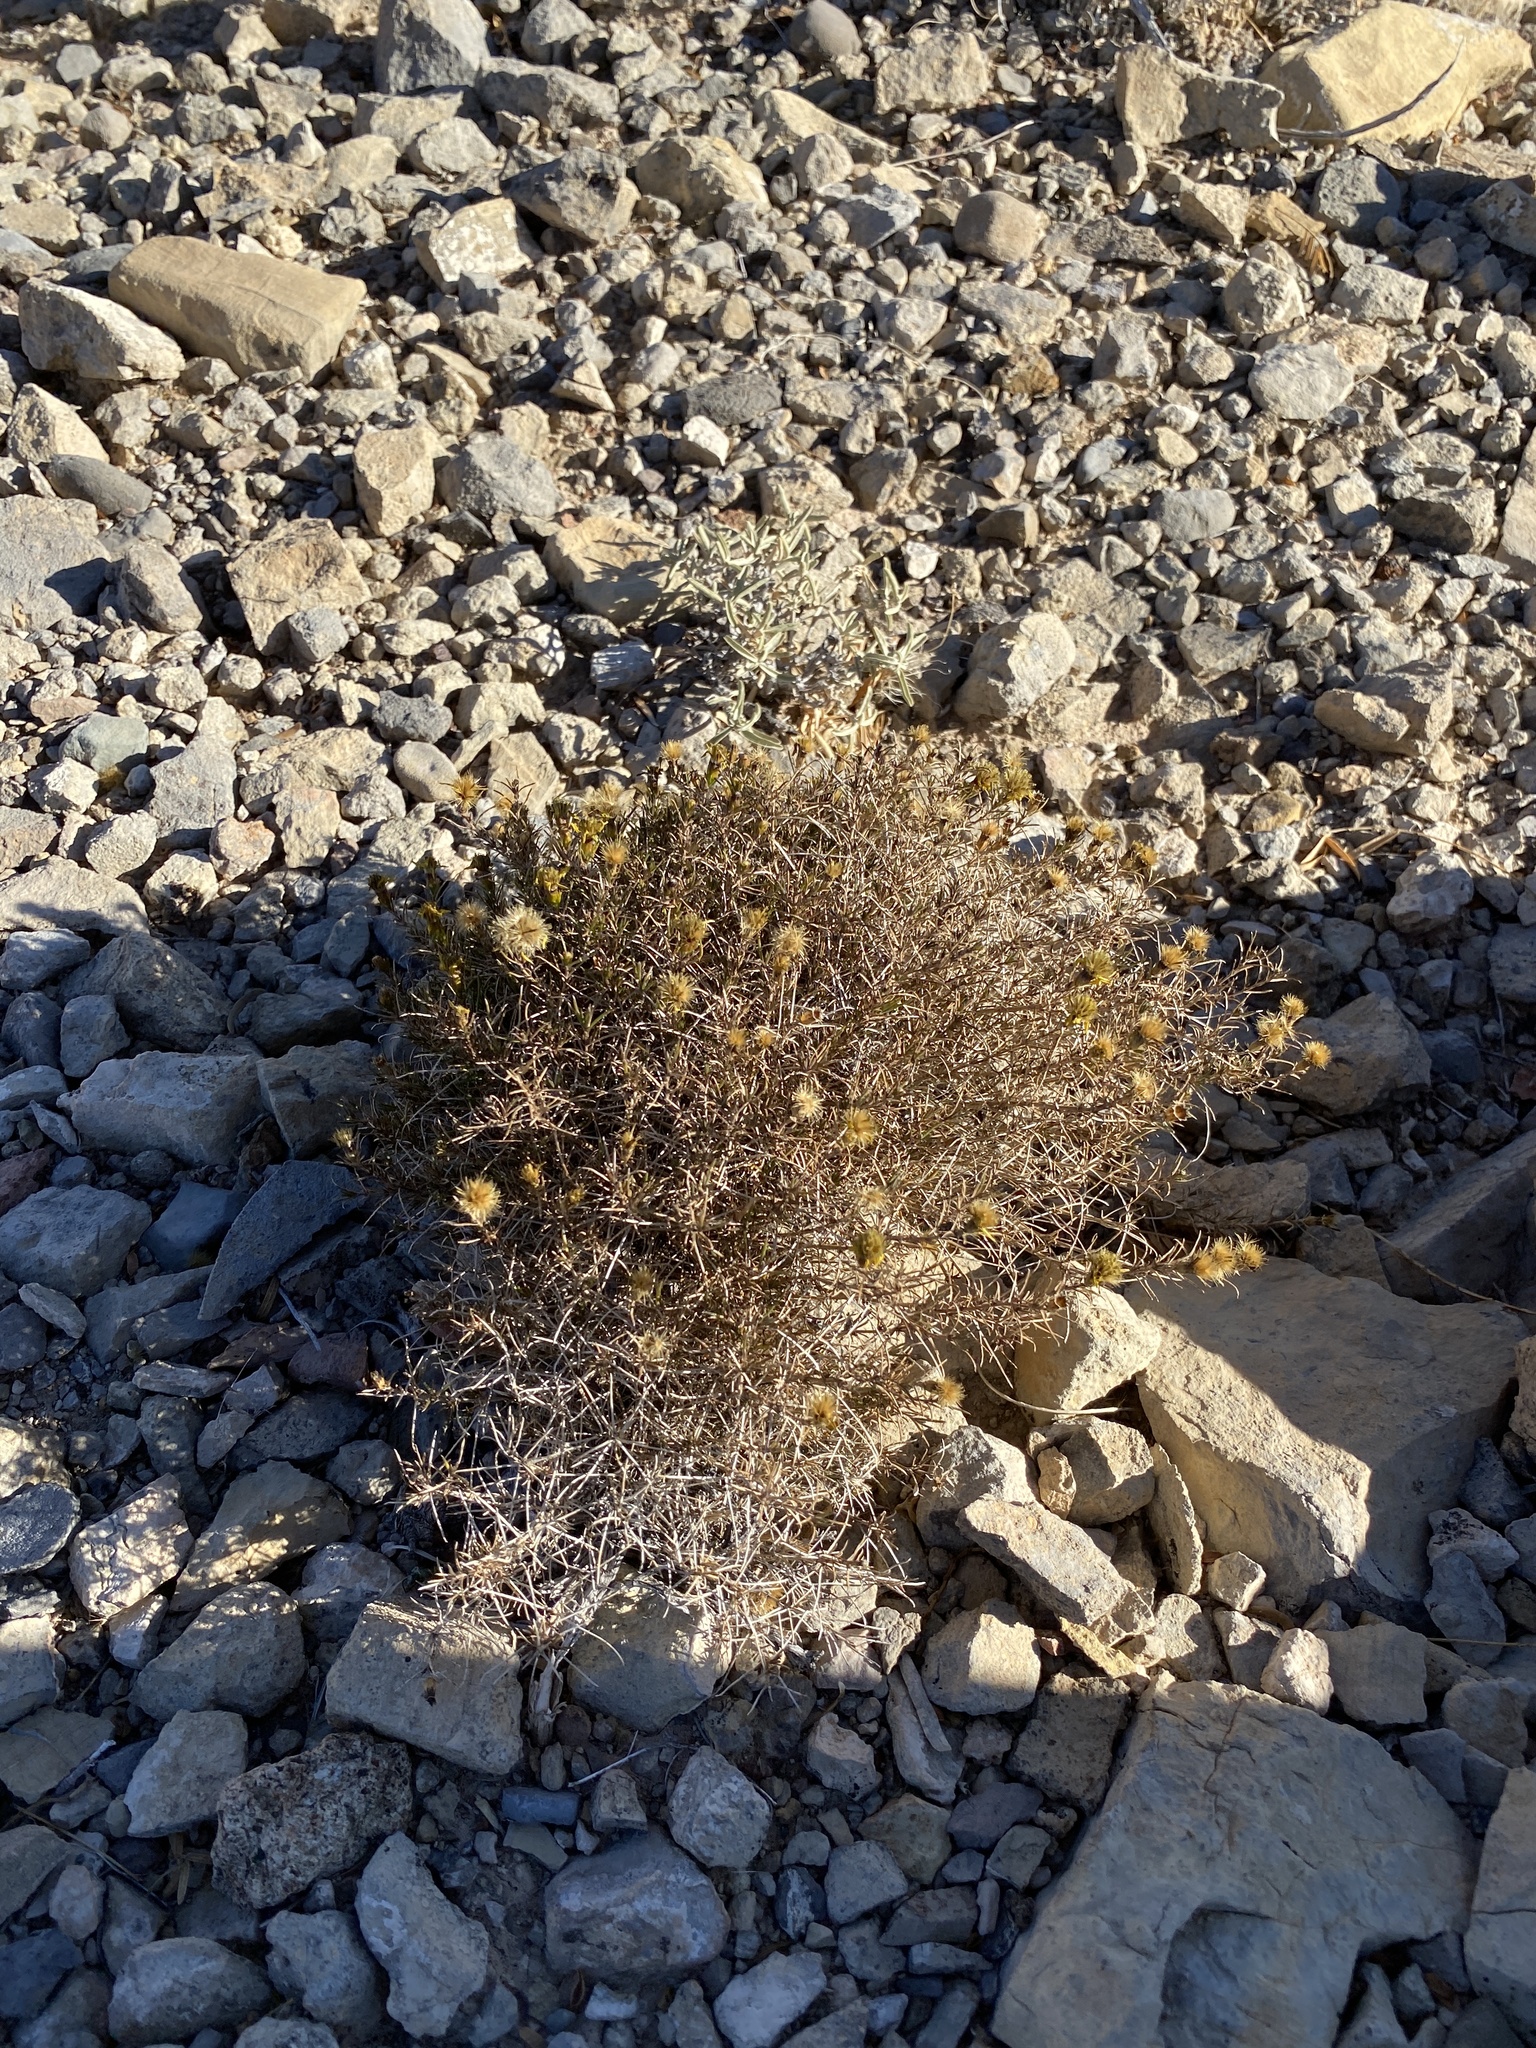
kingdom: Plantae
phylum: Tracheophyta
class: Magnoliopsida
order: Asterales
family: Asteraceae
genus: Thymophylla
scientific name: Thymophylla acerosa
